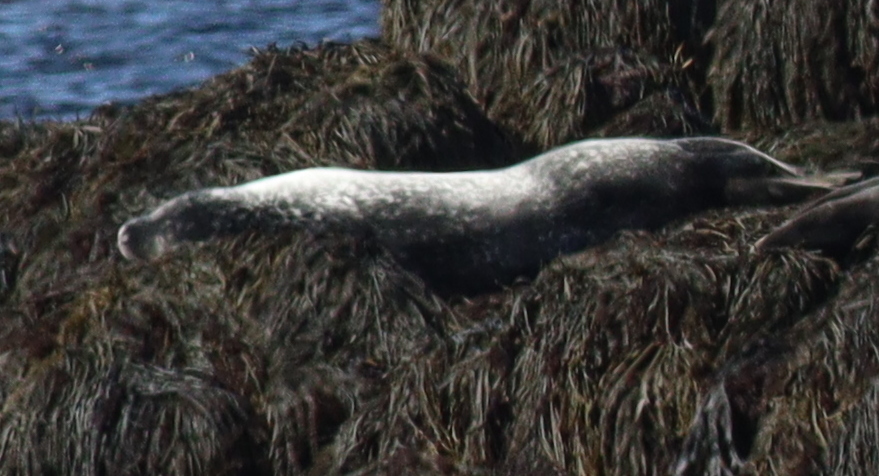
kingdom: Animalia
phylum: Chordata
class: Mammalia
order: Carnivora
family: Phocidae
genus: Phoca
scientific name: Phoca vitulina
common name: Harbor seal
